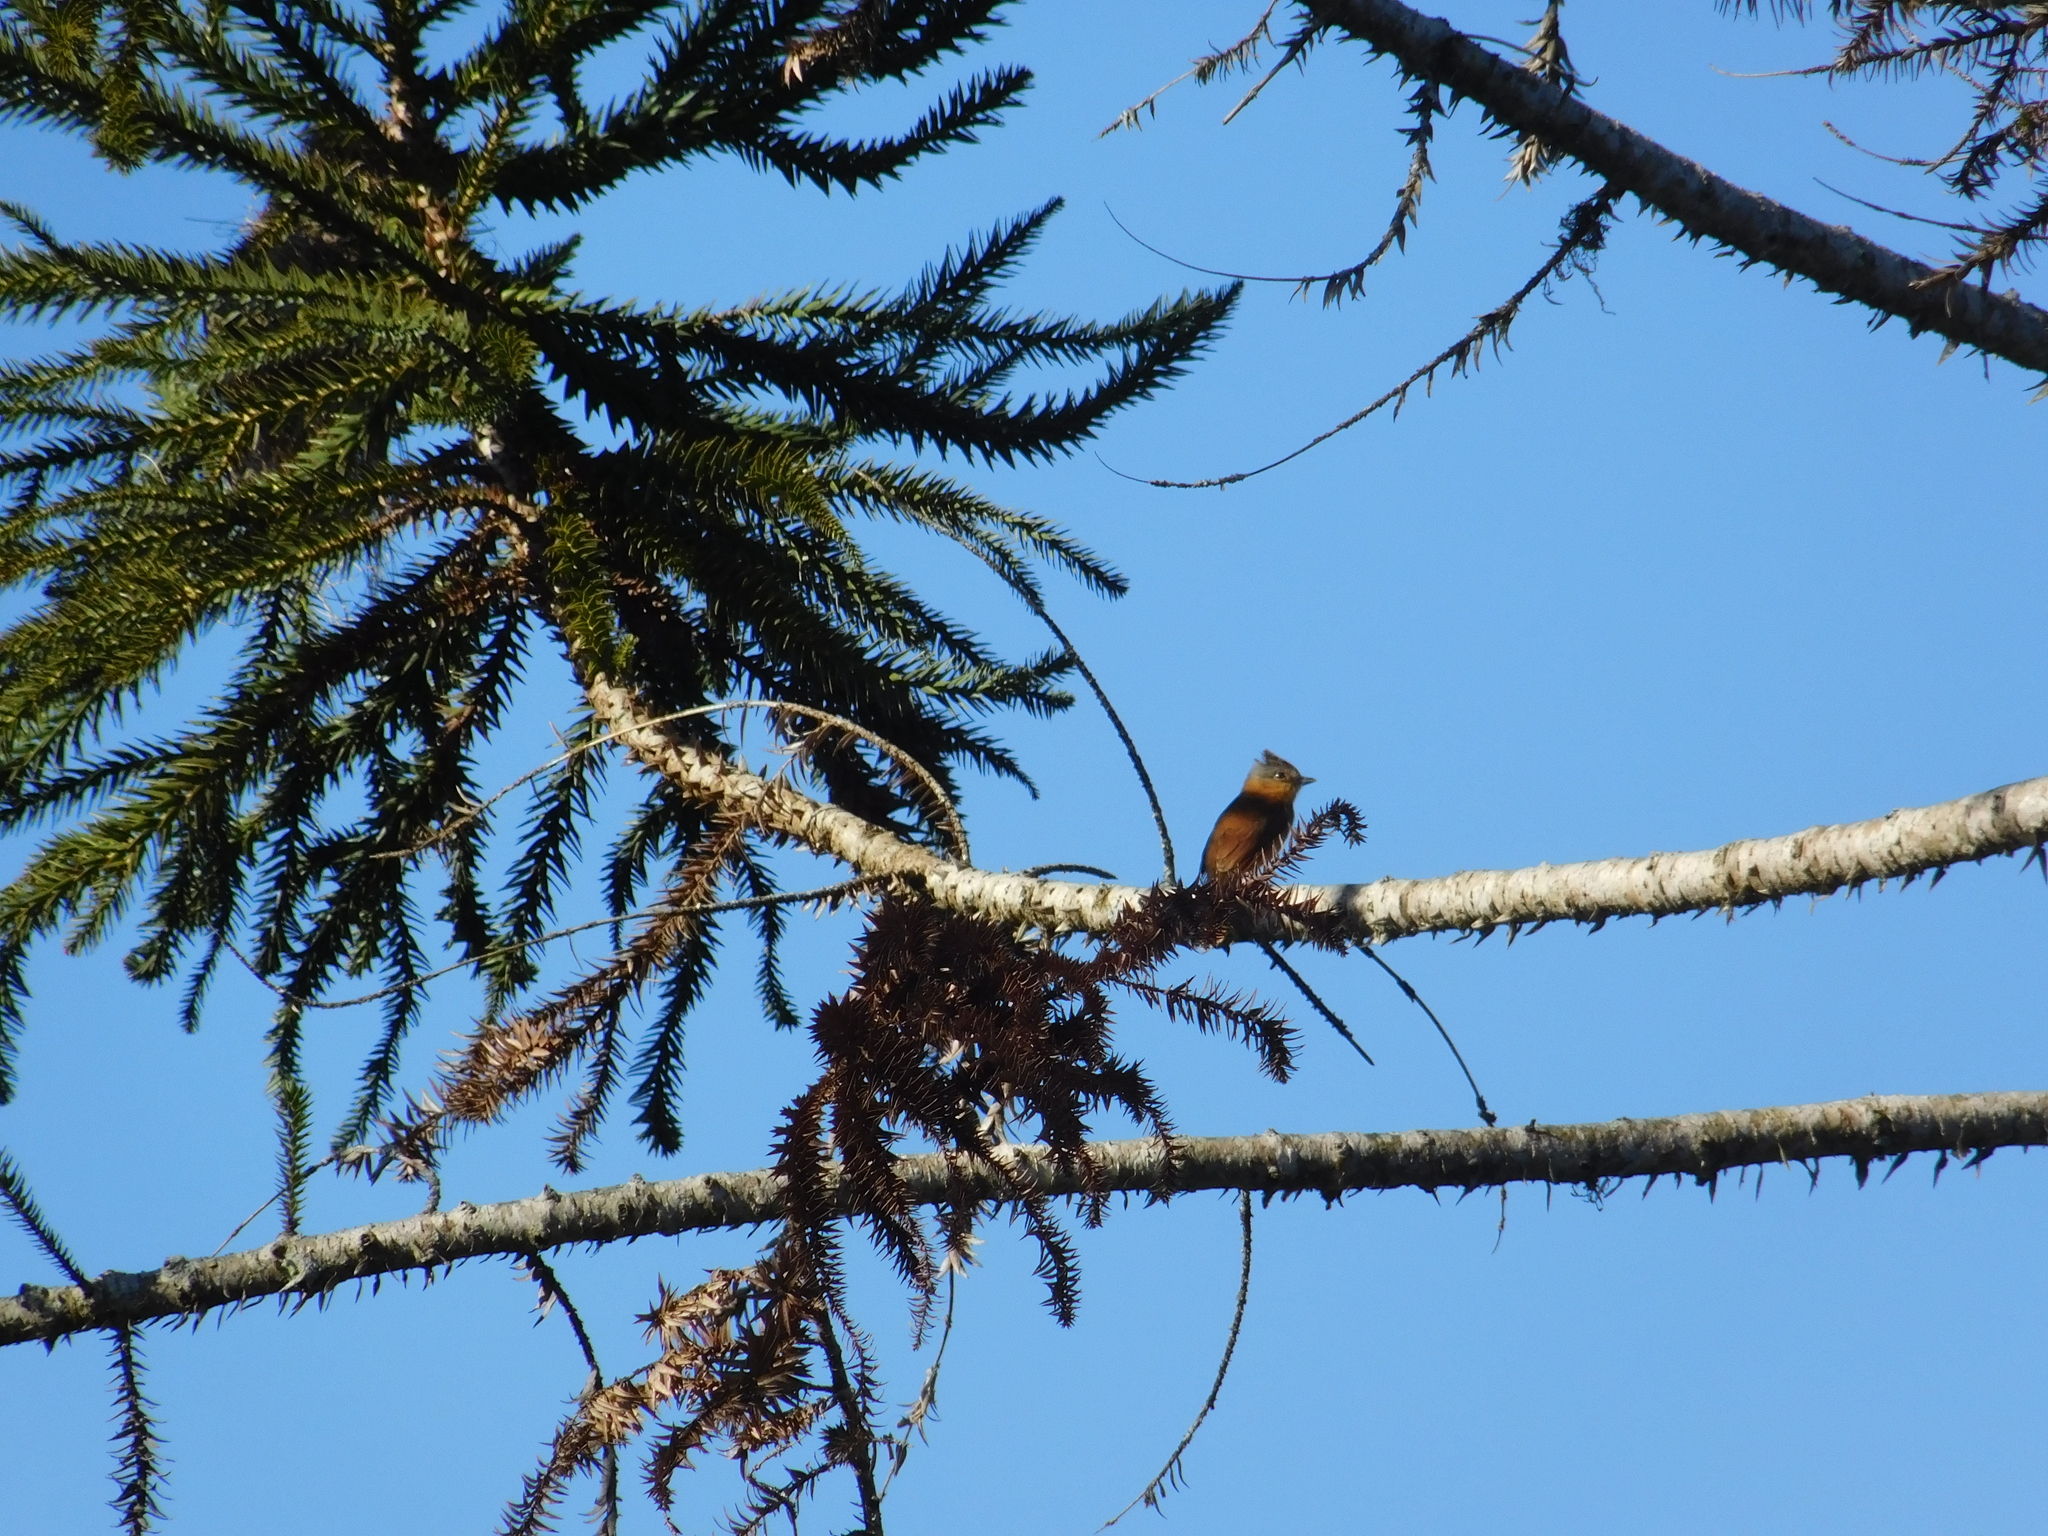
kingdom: Animalia
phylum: Chordata
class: Aves
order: Passeriformes
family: Cotingidae
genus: Pachyramphus
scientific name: Pachyramphus castaneus
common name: Chestnut-crowned becard
